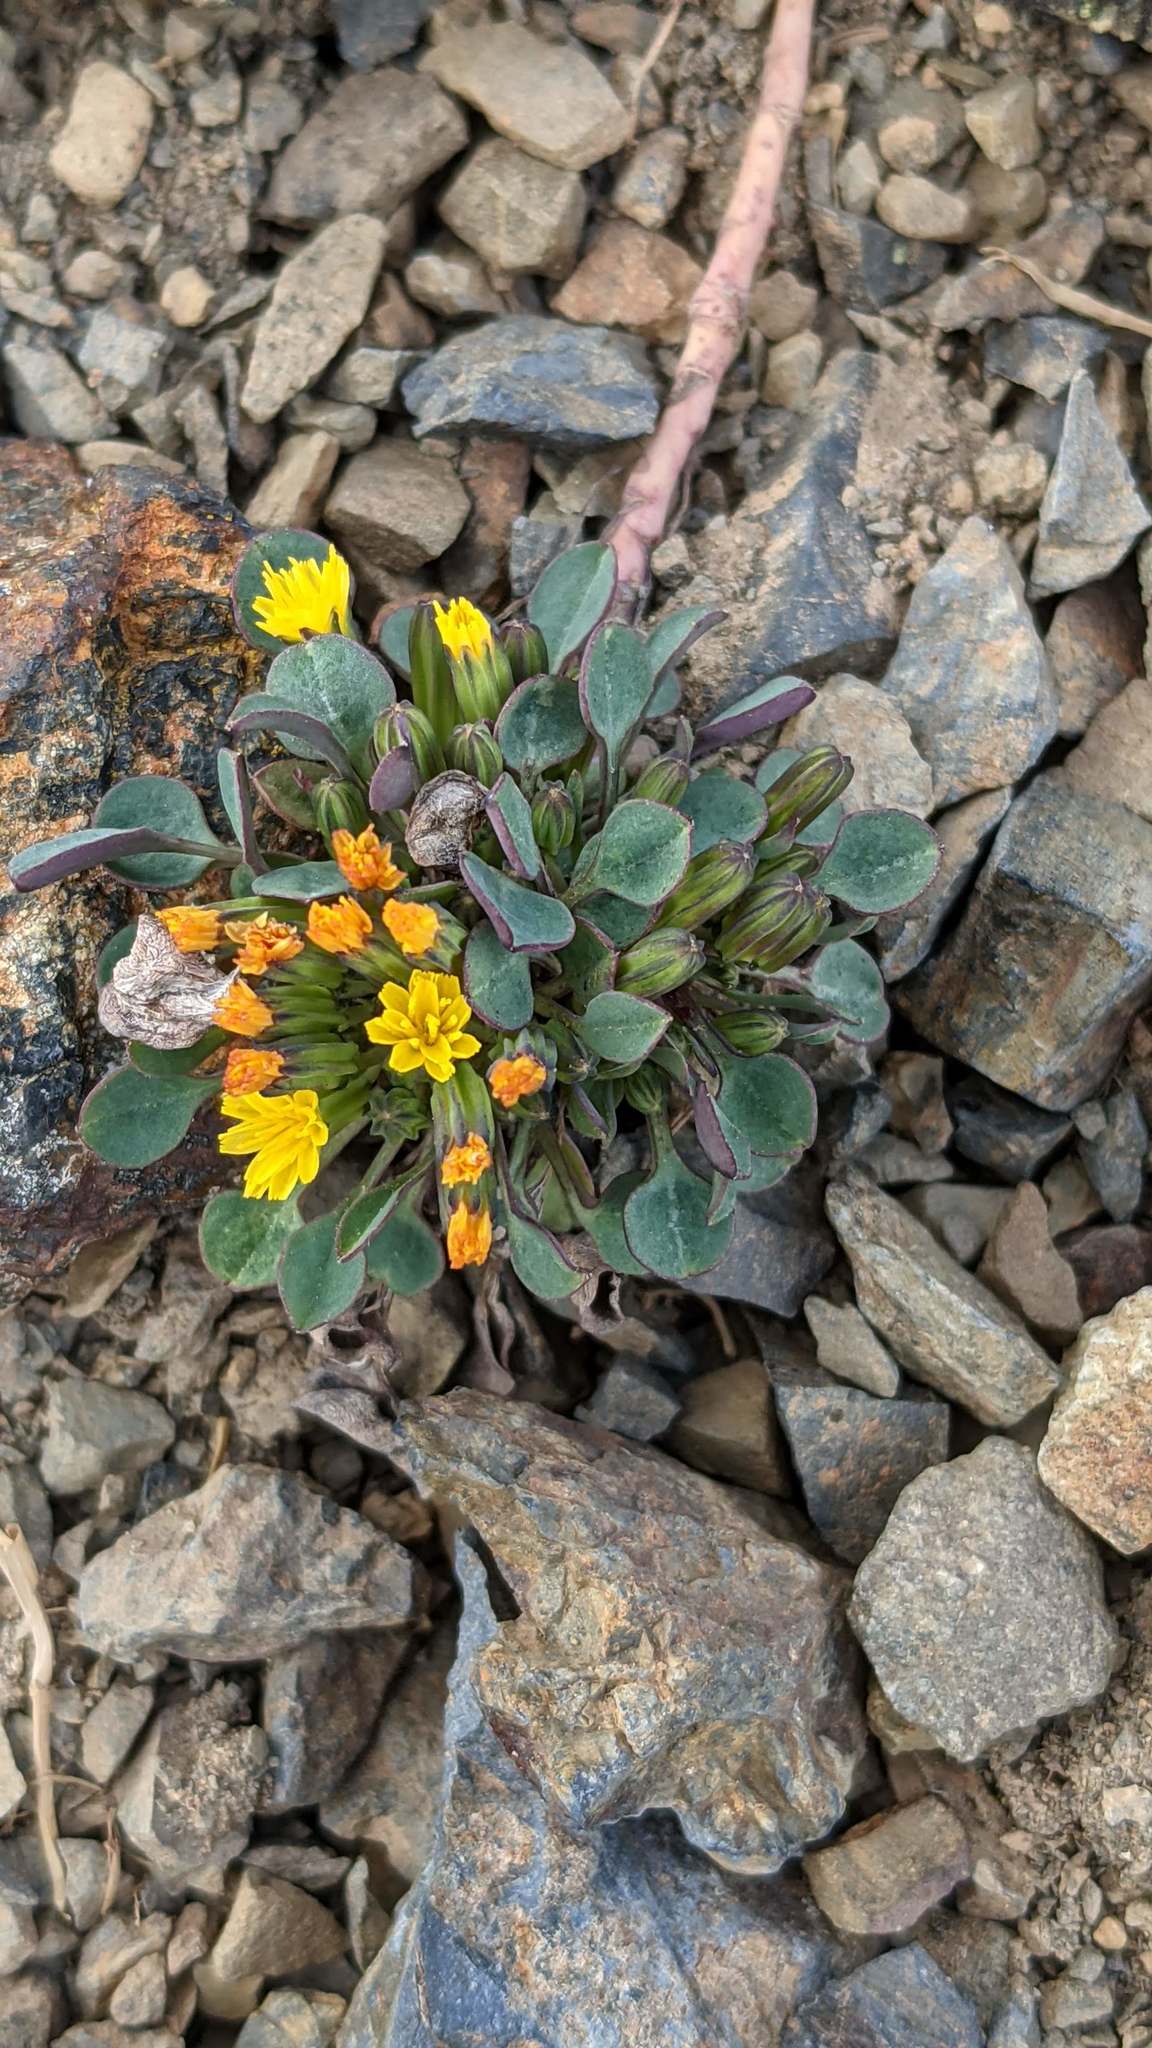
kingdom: Plantae
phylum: Tracheophyta
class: Magnoliopsida
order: Asterales
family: Asteraceae
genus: Askellia
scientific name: Askellia pygmaea
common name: Dwarf alpine hawksbeard
